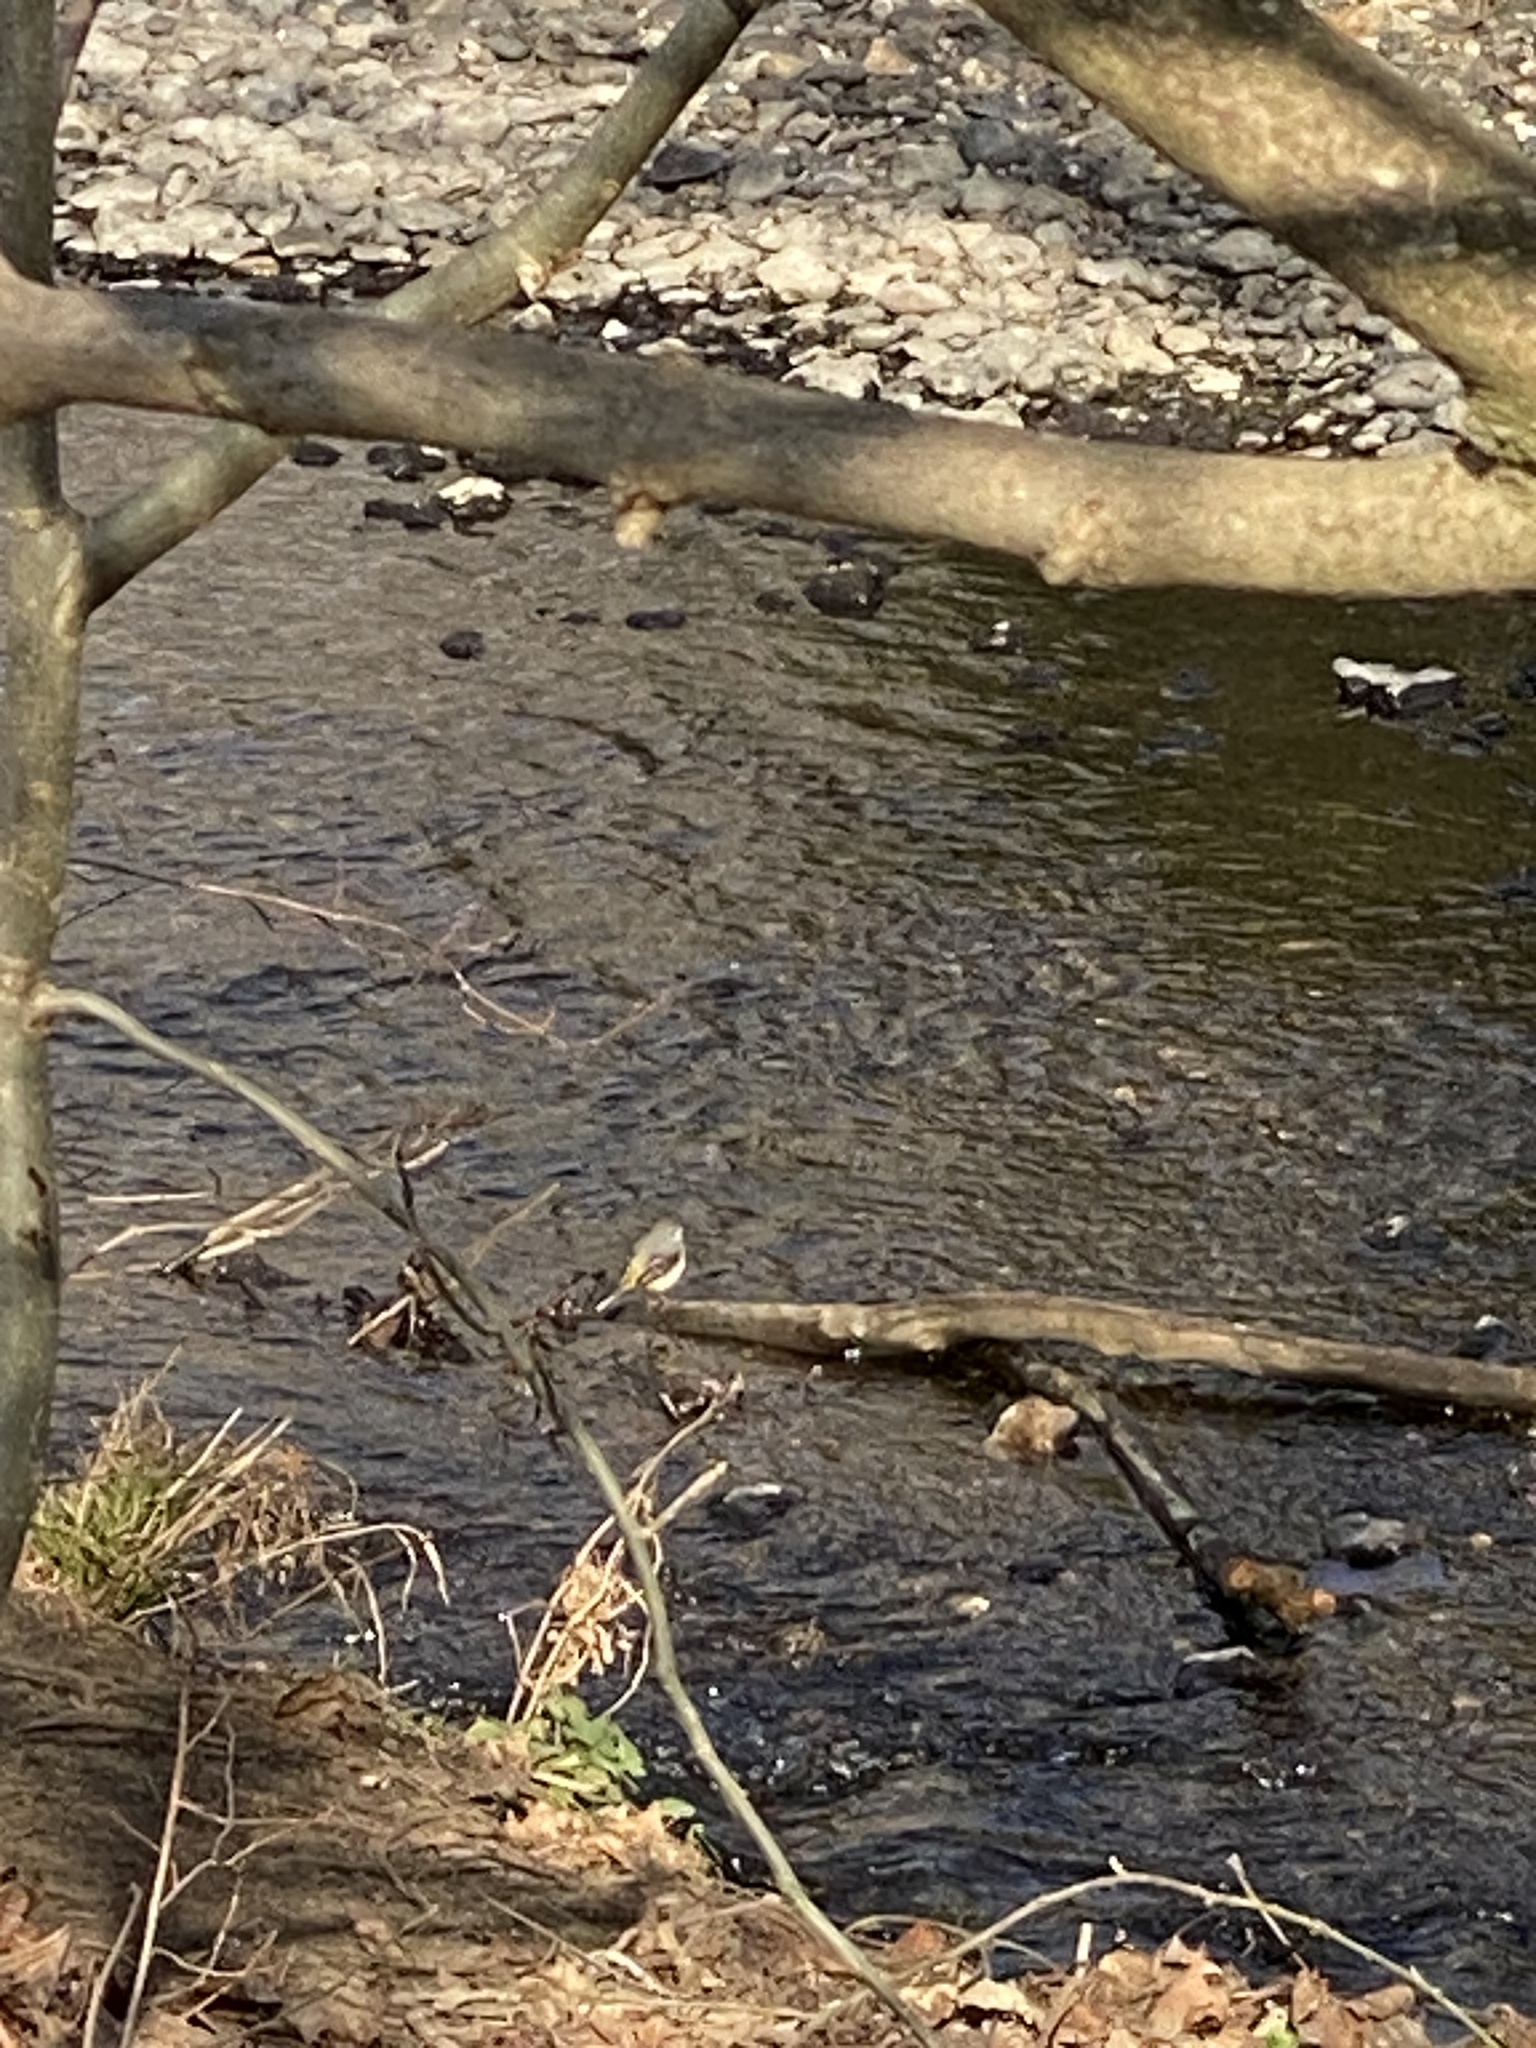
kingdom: Animalia
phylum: Chordata
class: Aves
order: Passeriformes
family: Motacillidae
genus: Motacilla
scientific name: Motacilla cinerea
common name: Grey wagtail
